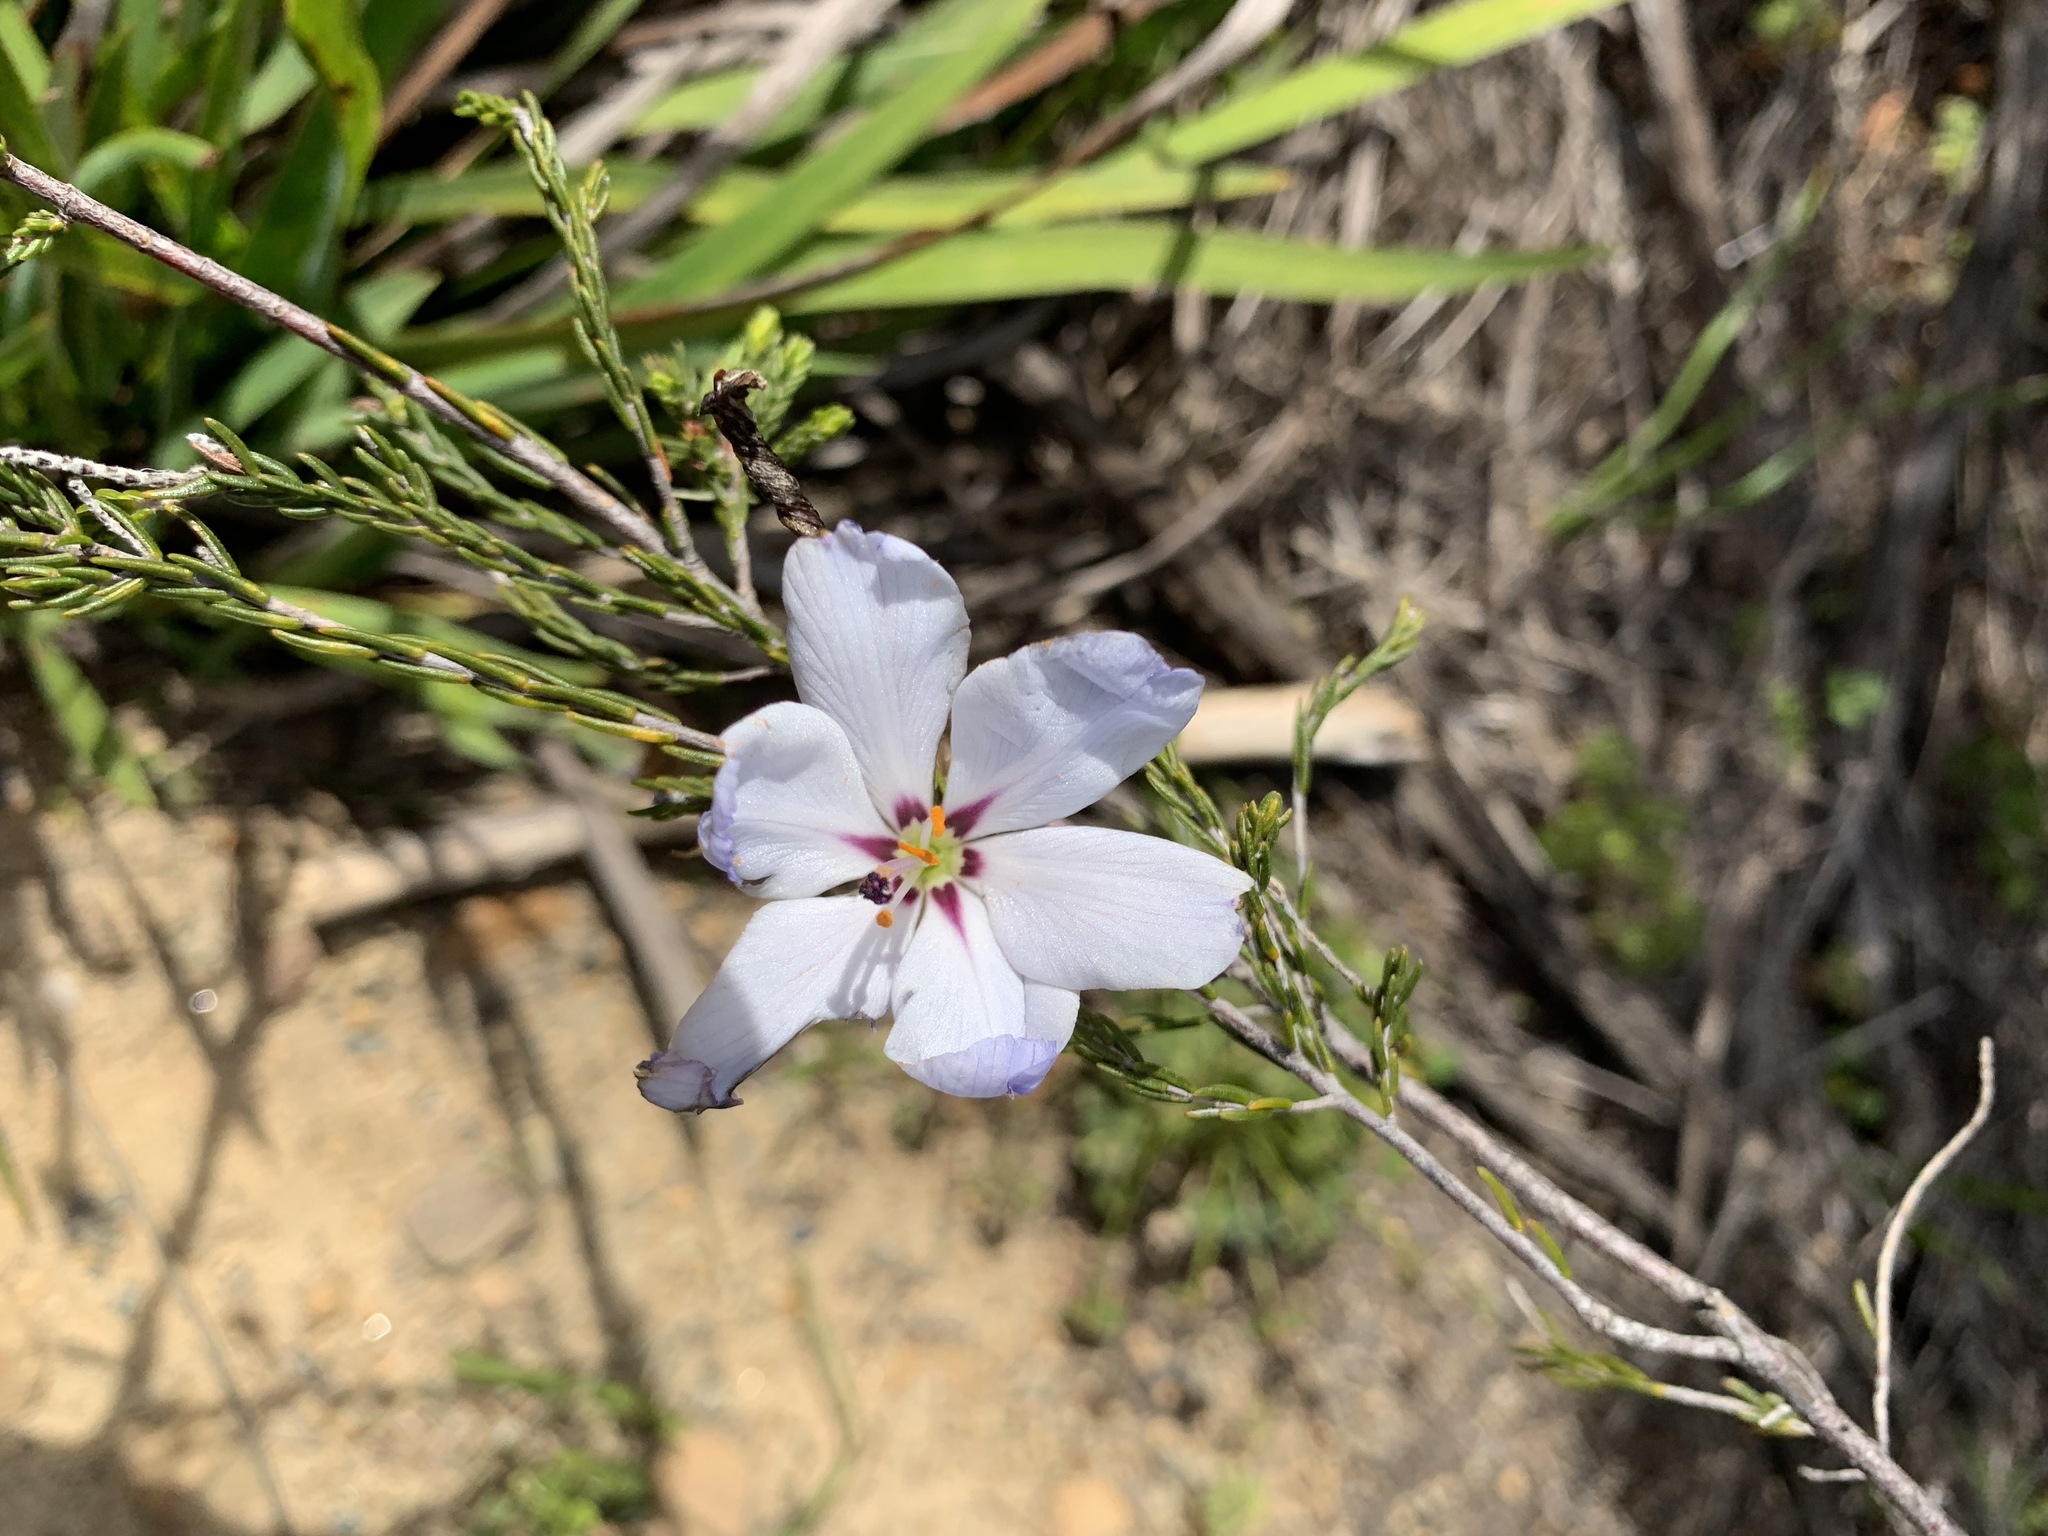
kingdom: Plantae
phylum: Tracheophyta
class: Magnoliopsida
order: Sapindales
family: Rutaceae
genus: Adenandra
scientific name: Adenandra uniflora
